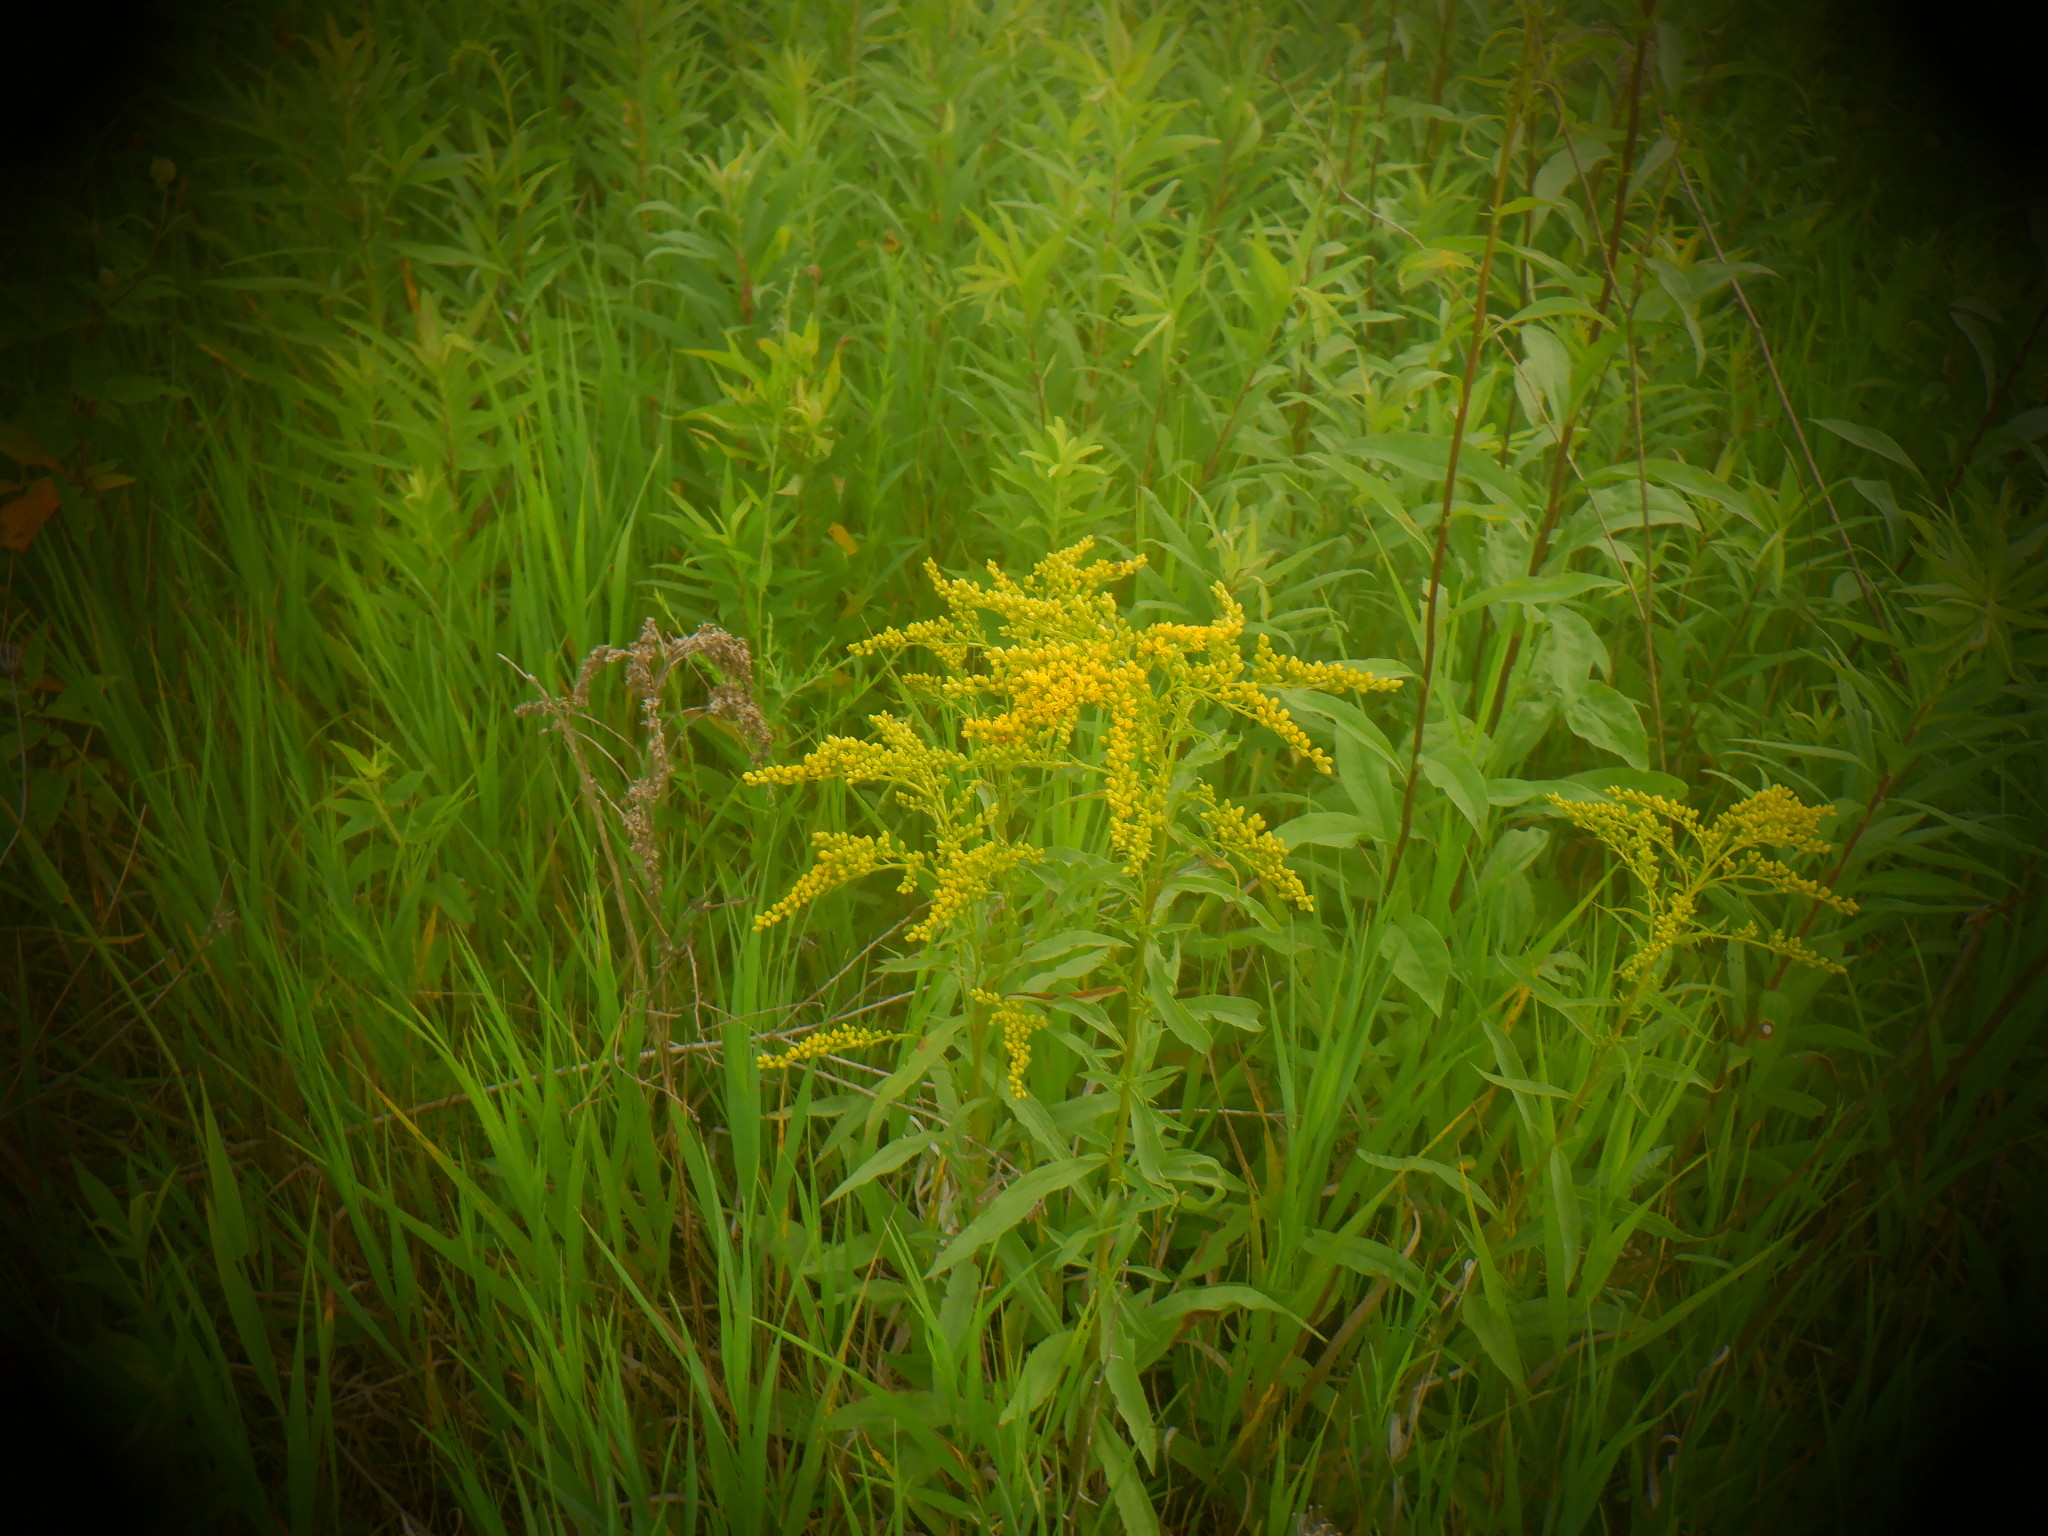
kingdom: Plantae
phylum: Tracheophyta
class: Magnoliopsida
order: Asterales
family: Asteraceae
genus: Solidago
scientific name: Solidago juncea
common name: Early goldenrod
